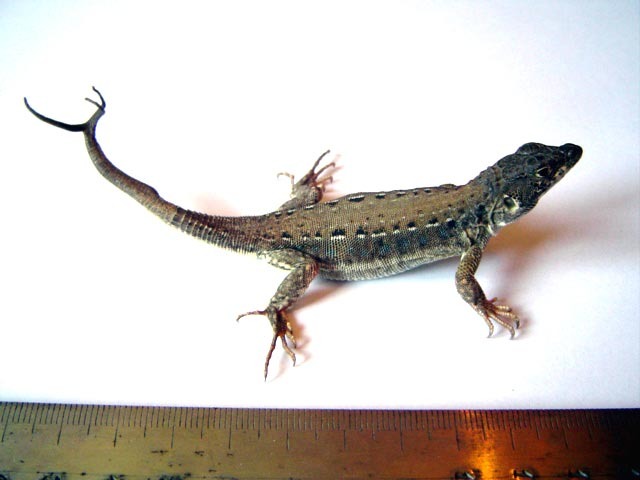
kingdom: Animalia
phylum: Chordata
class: Squamata
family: Lacertidae
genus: Eremias
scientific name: Eremias strauchi
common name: Strauch's racerunner
